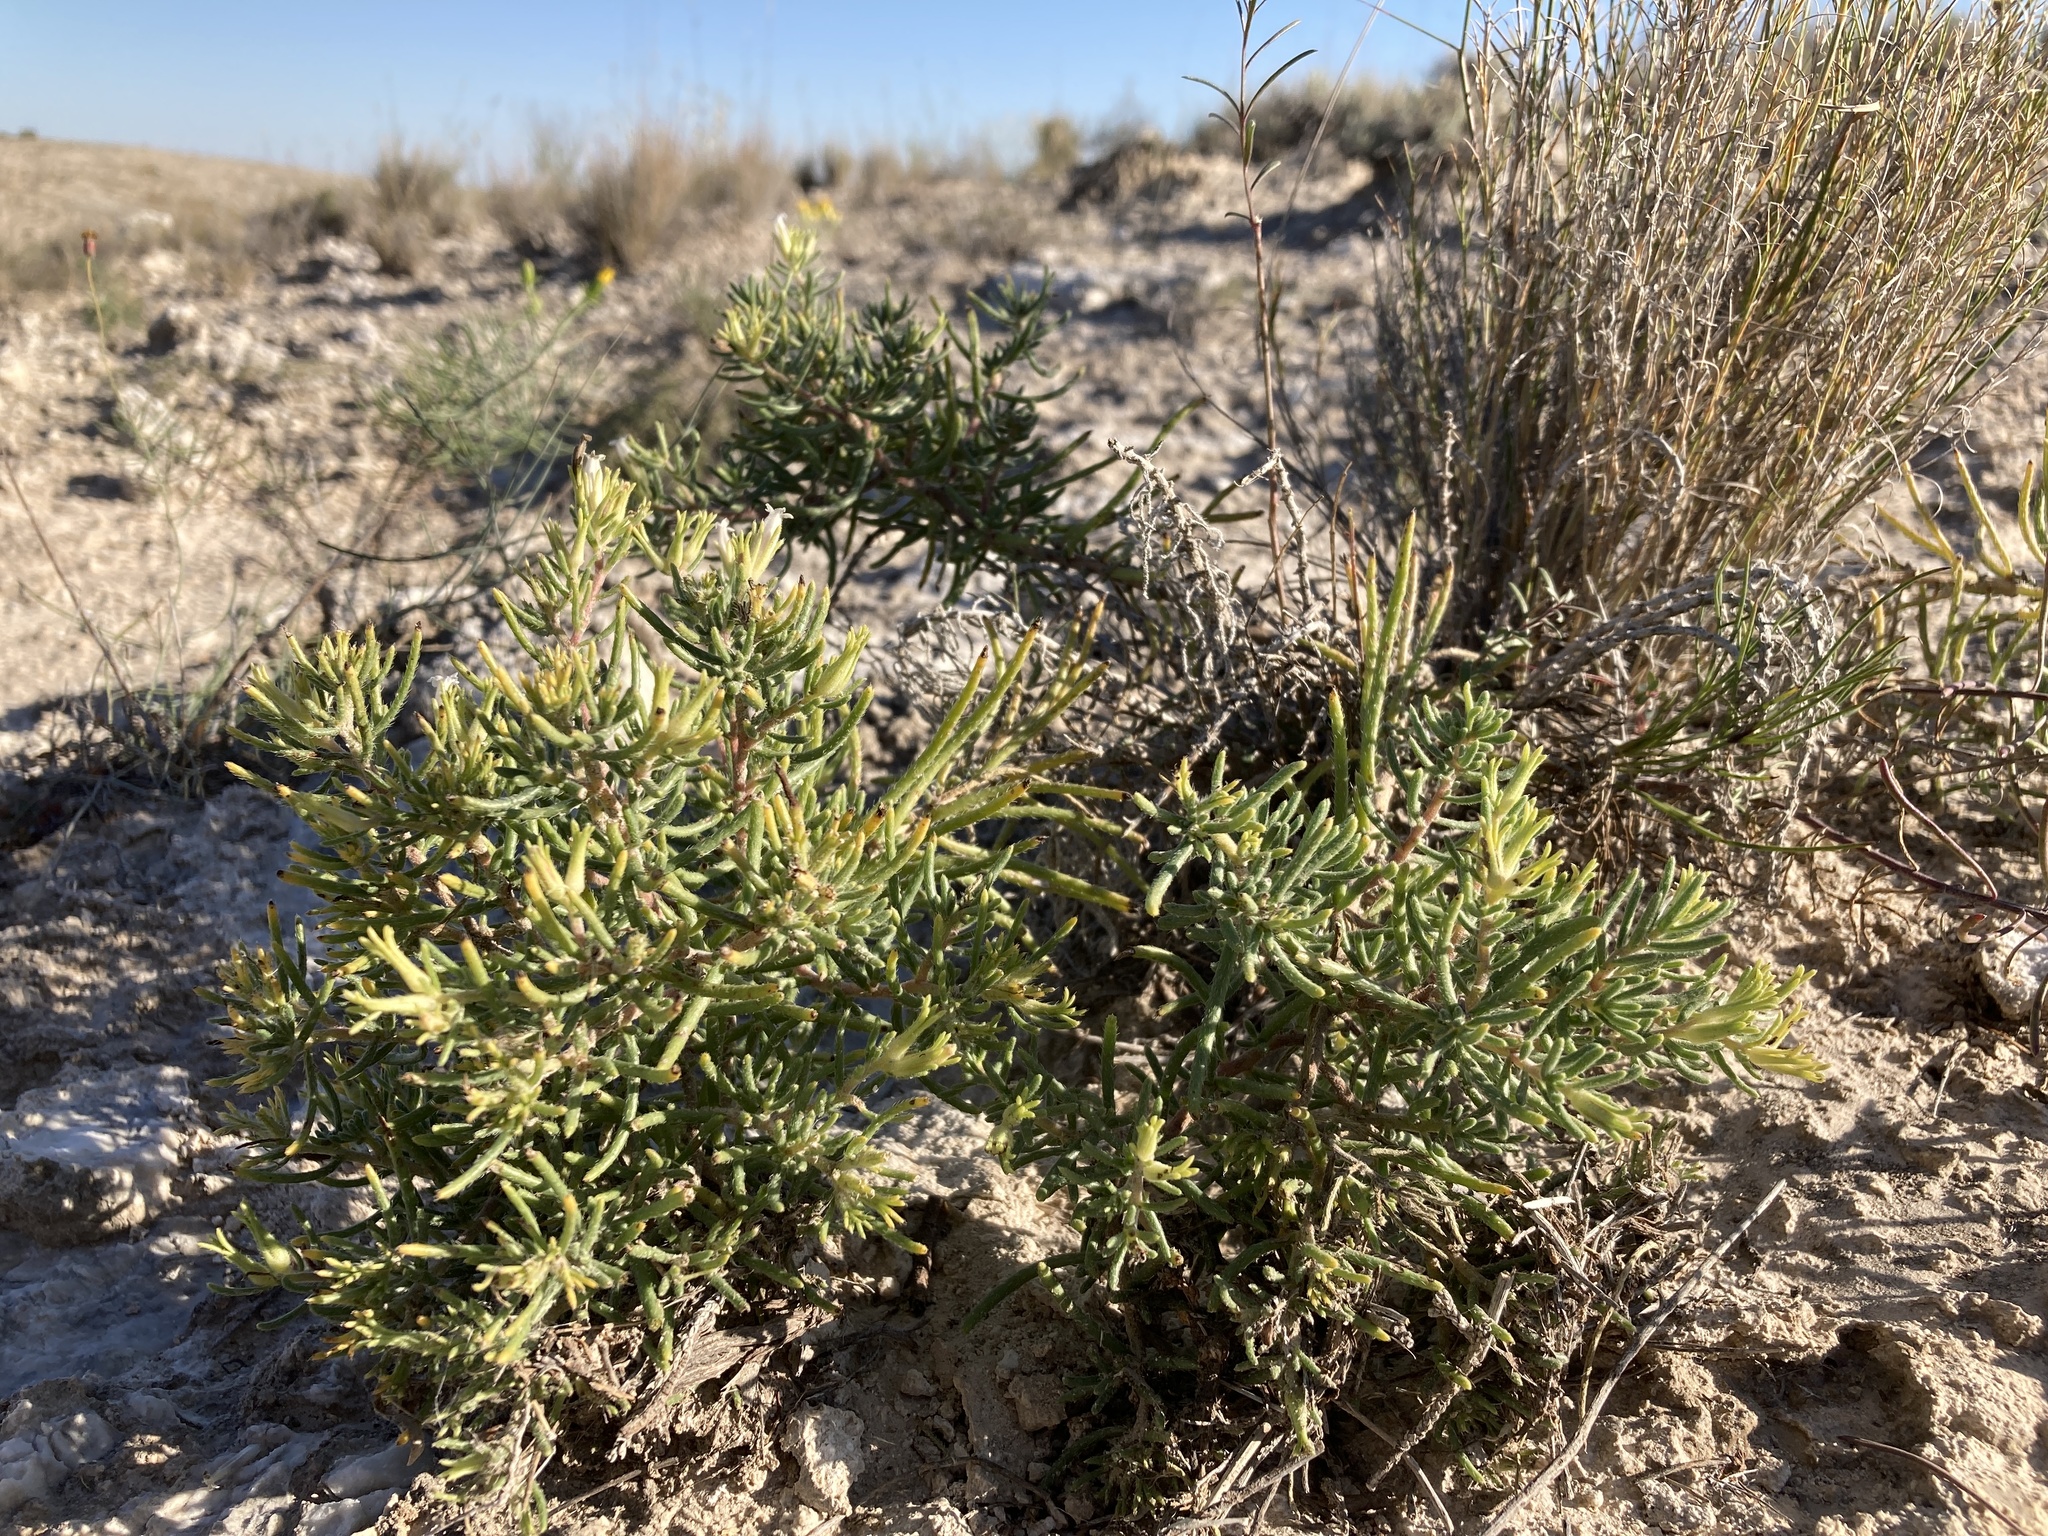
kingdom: Plantae
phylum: Tracheophyta
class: Magnoliopsida
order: Boraginales
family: Namaceae
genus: Andropus
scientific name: Andropus carnosus
